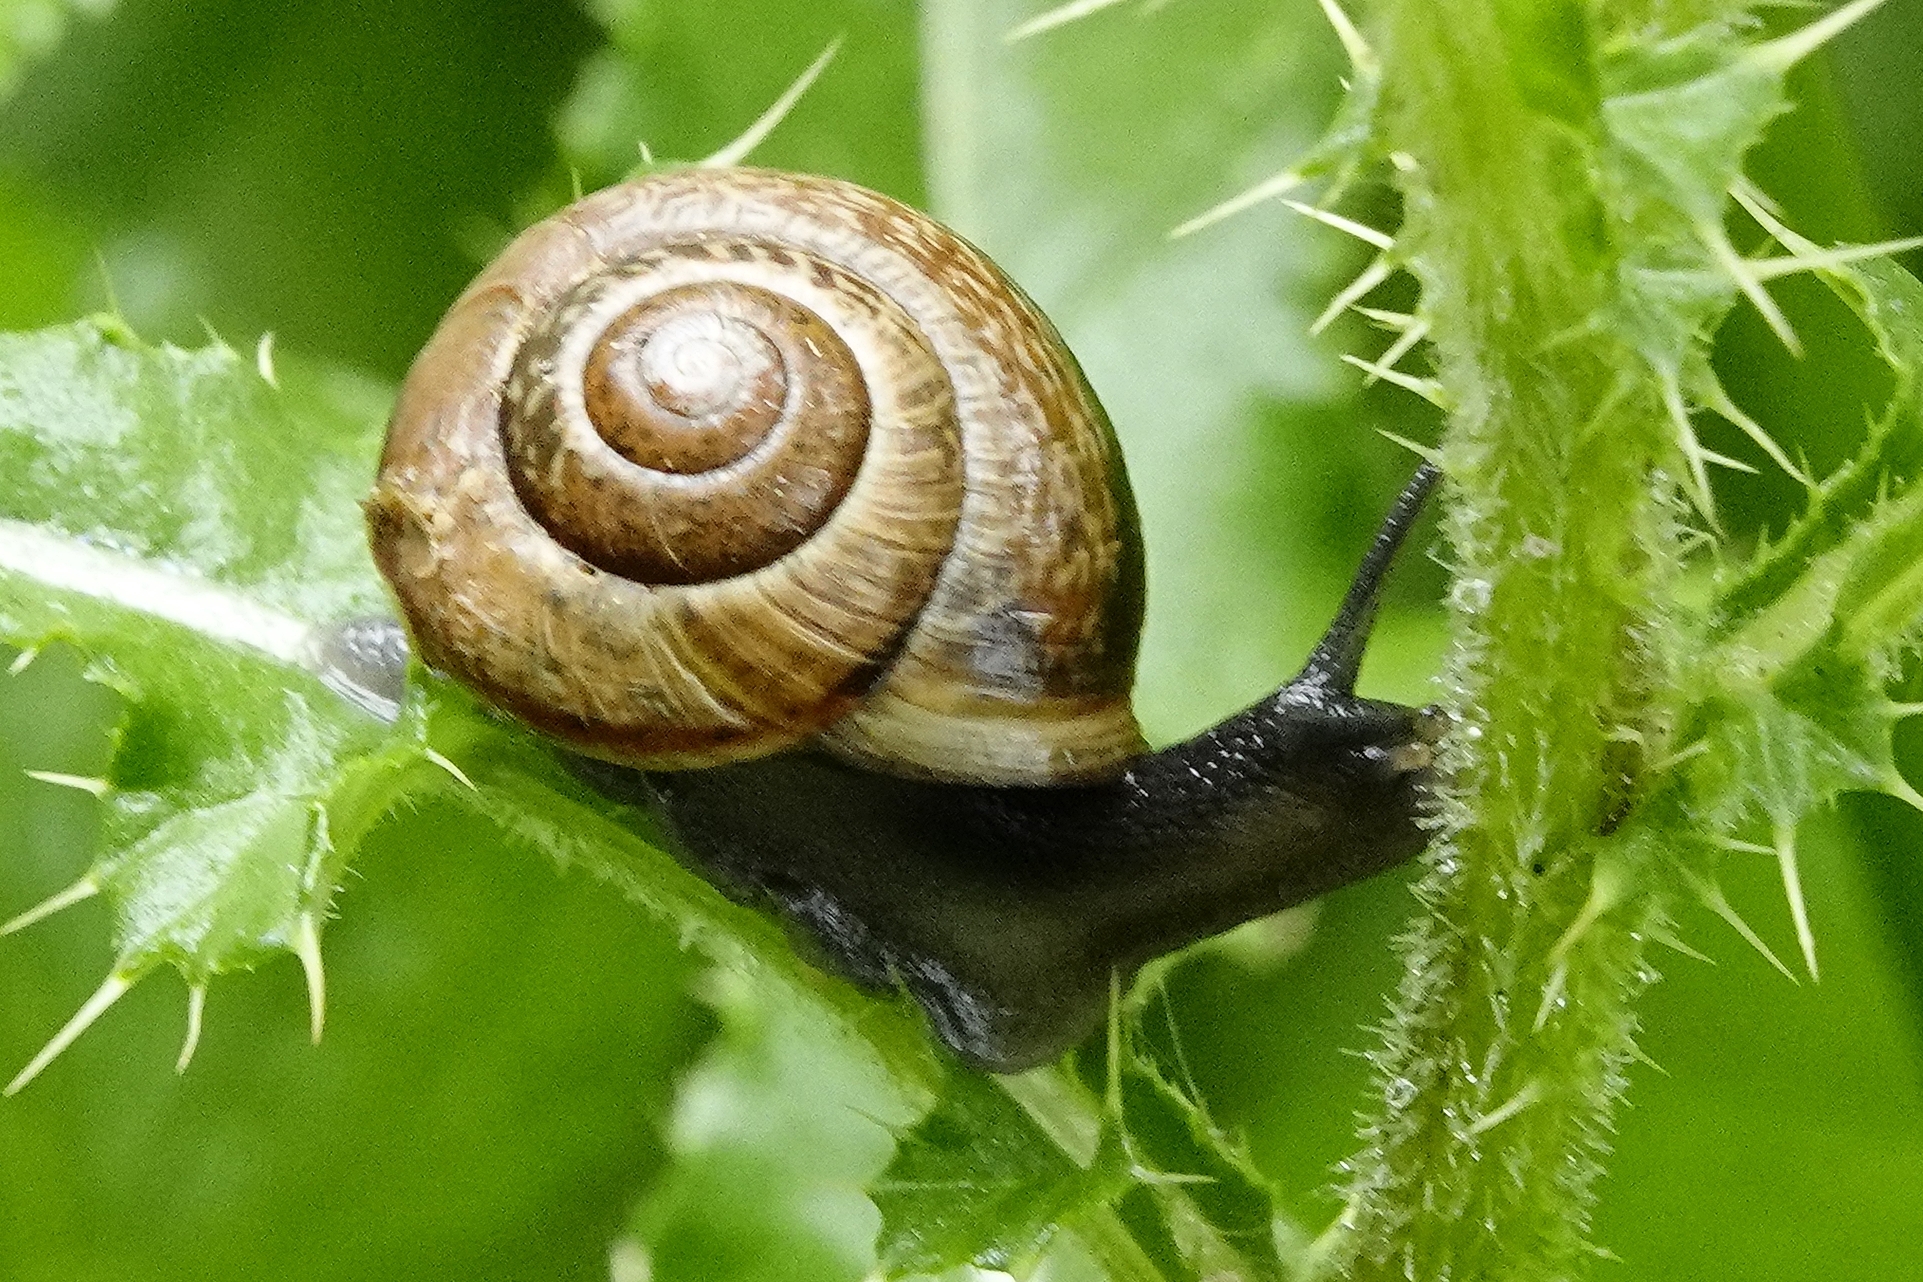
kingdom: Animalia
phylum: Mollusca
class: Gastropoda
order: Stylommatophora
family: Helicidae
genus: Arianta
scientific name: Arianta arbustorum
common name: Copse snail
